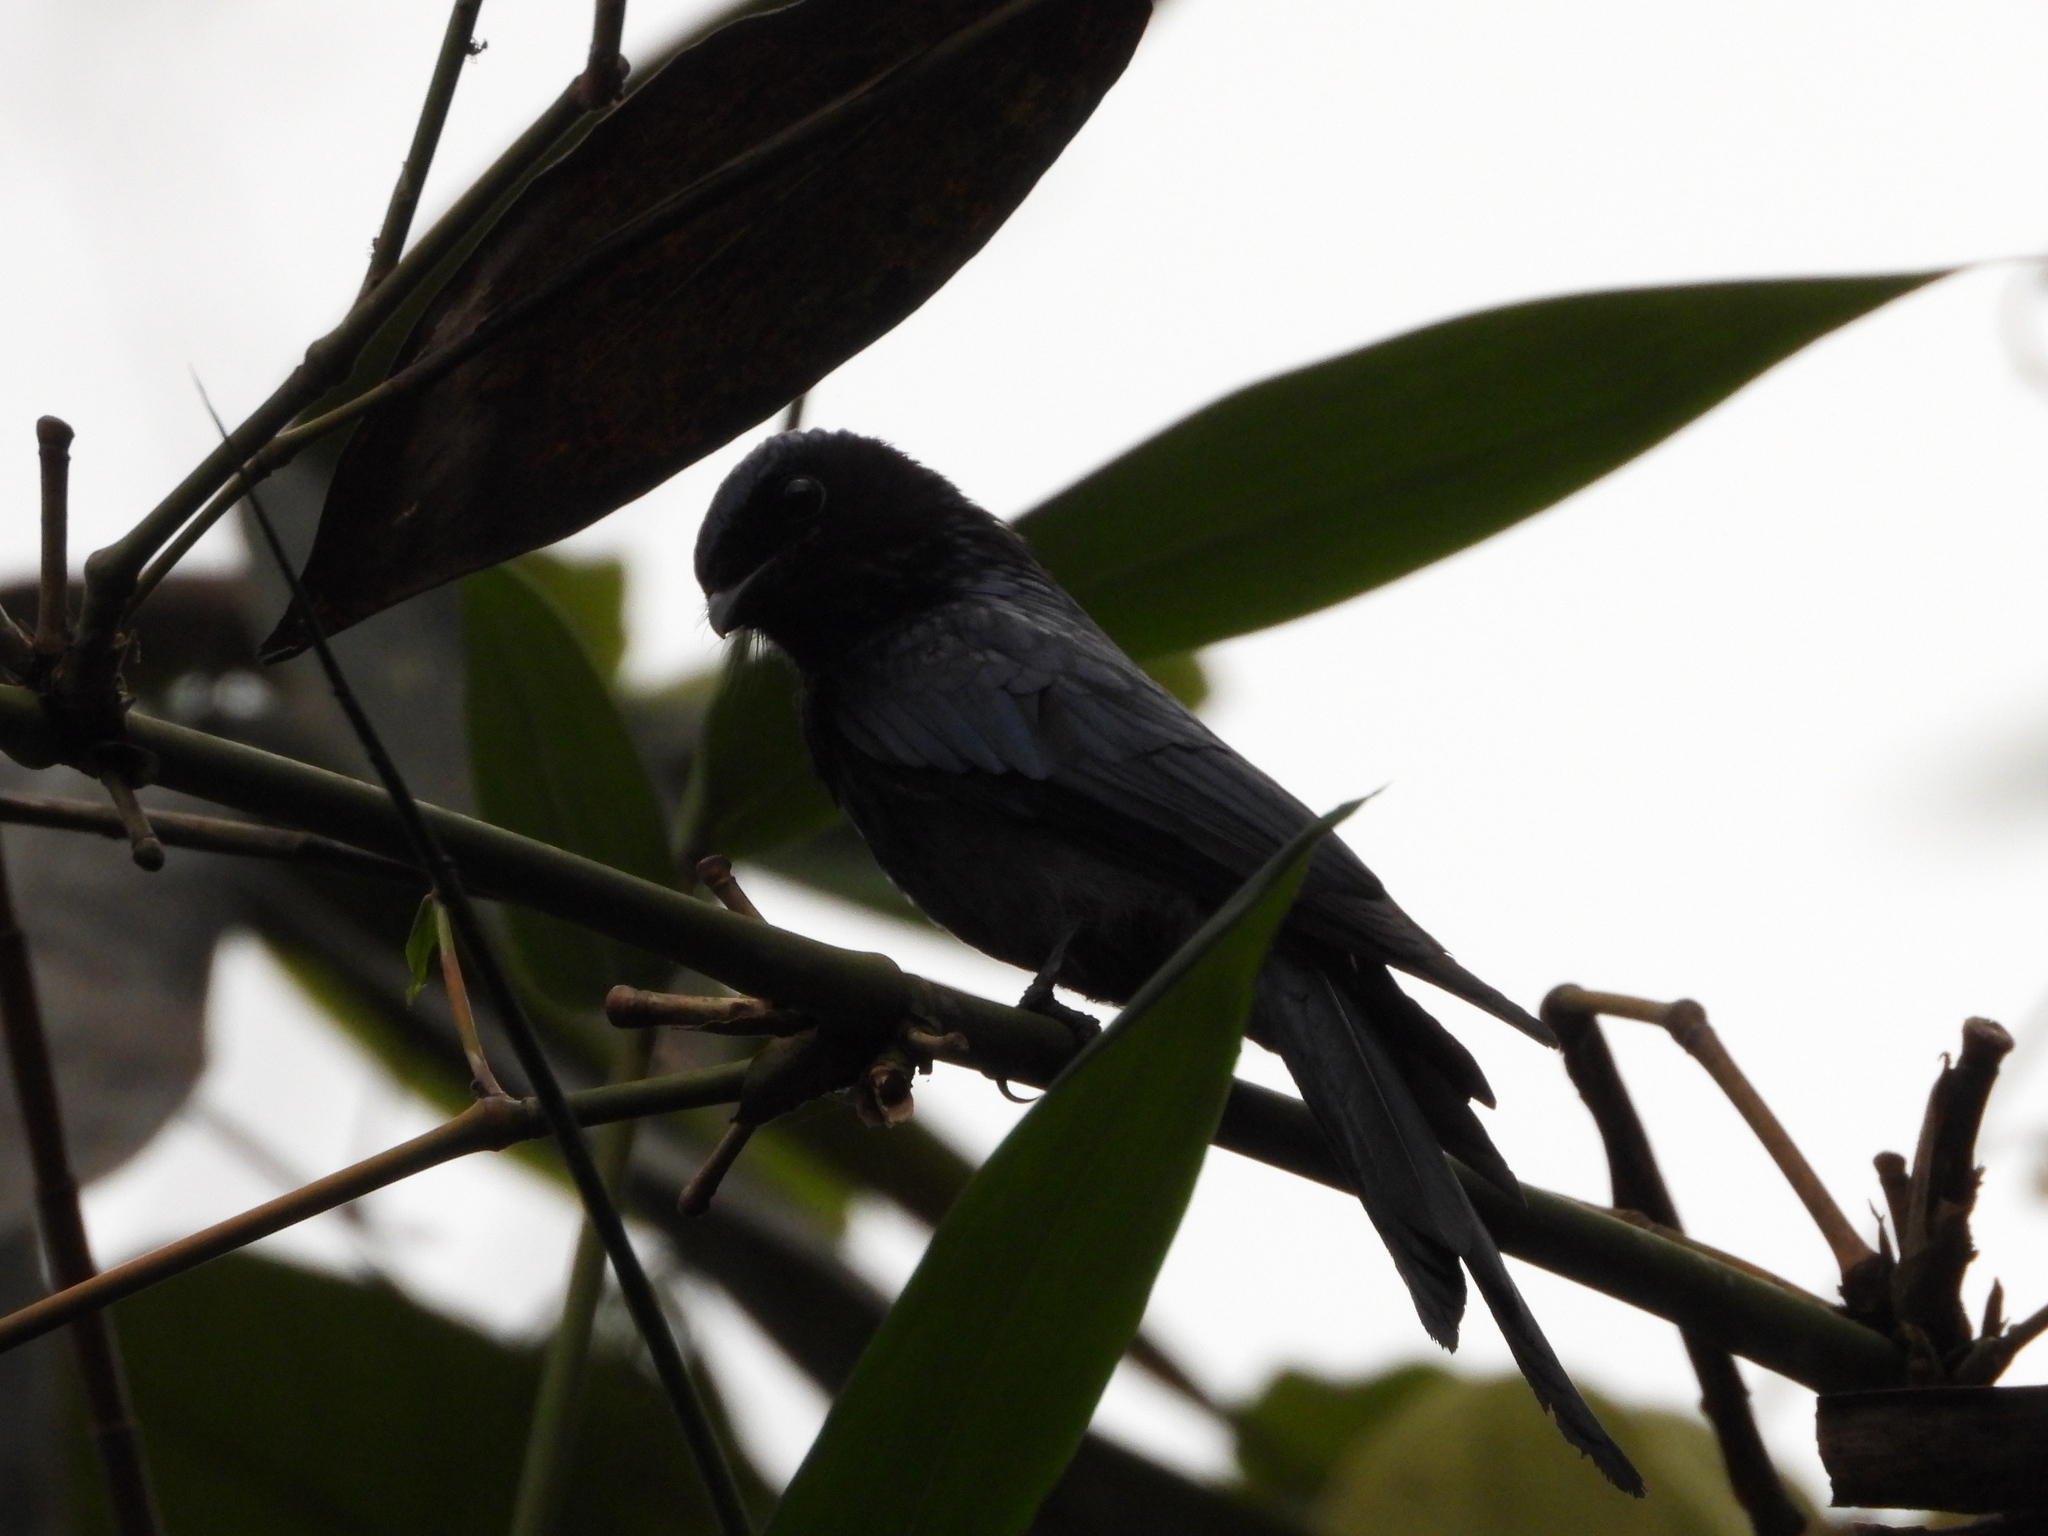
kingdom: Animalia
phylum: Chordata
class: Aves
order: Passeriformes
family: Dicruridae
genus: Dicrurus
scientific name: Dicrurus aeneus
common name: Bronzed drongo
